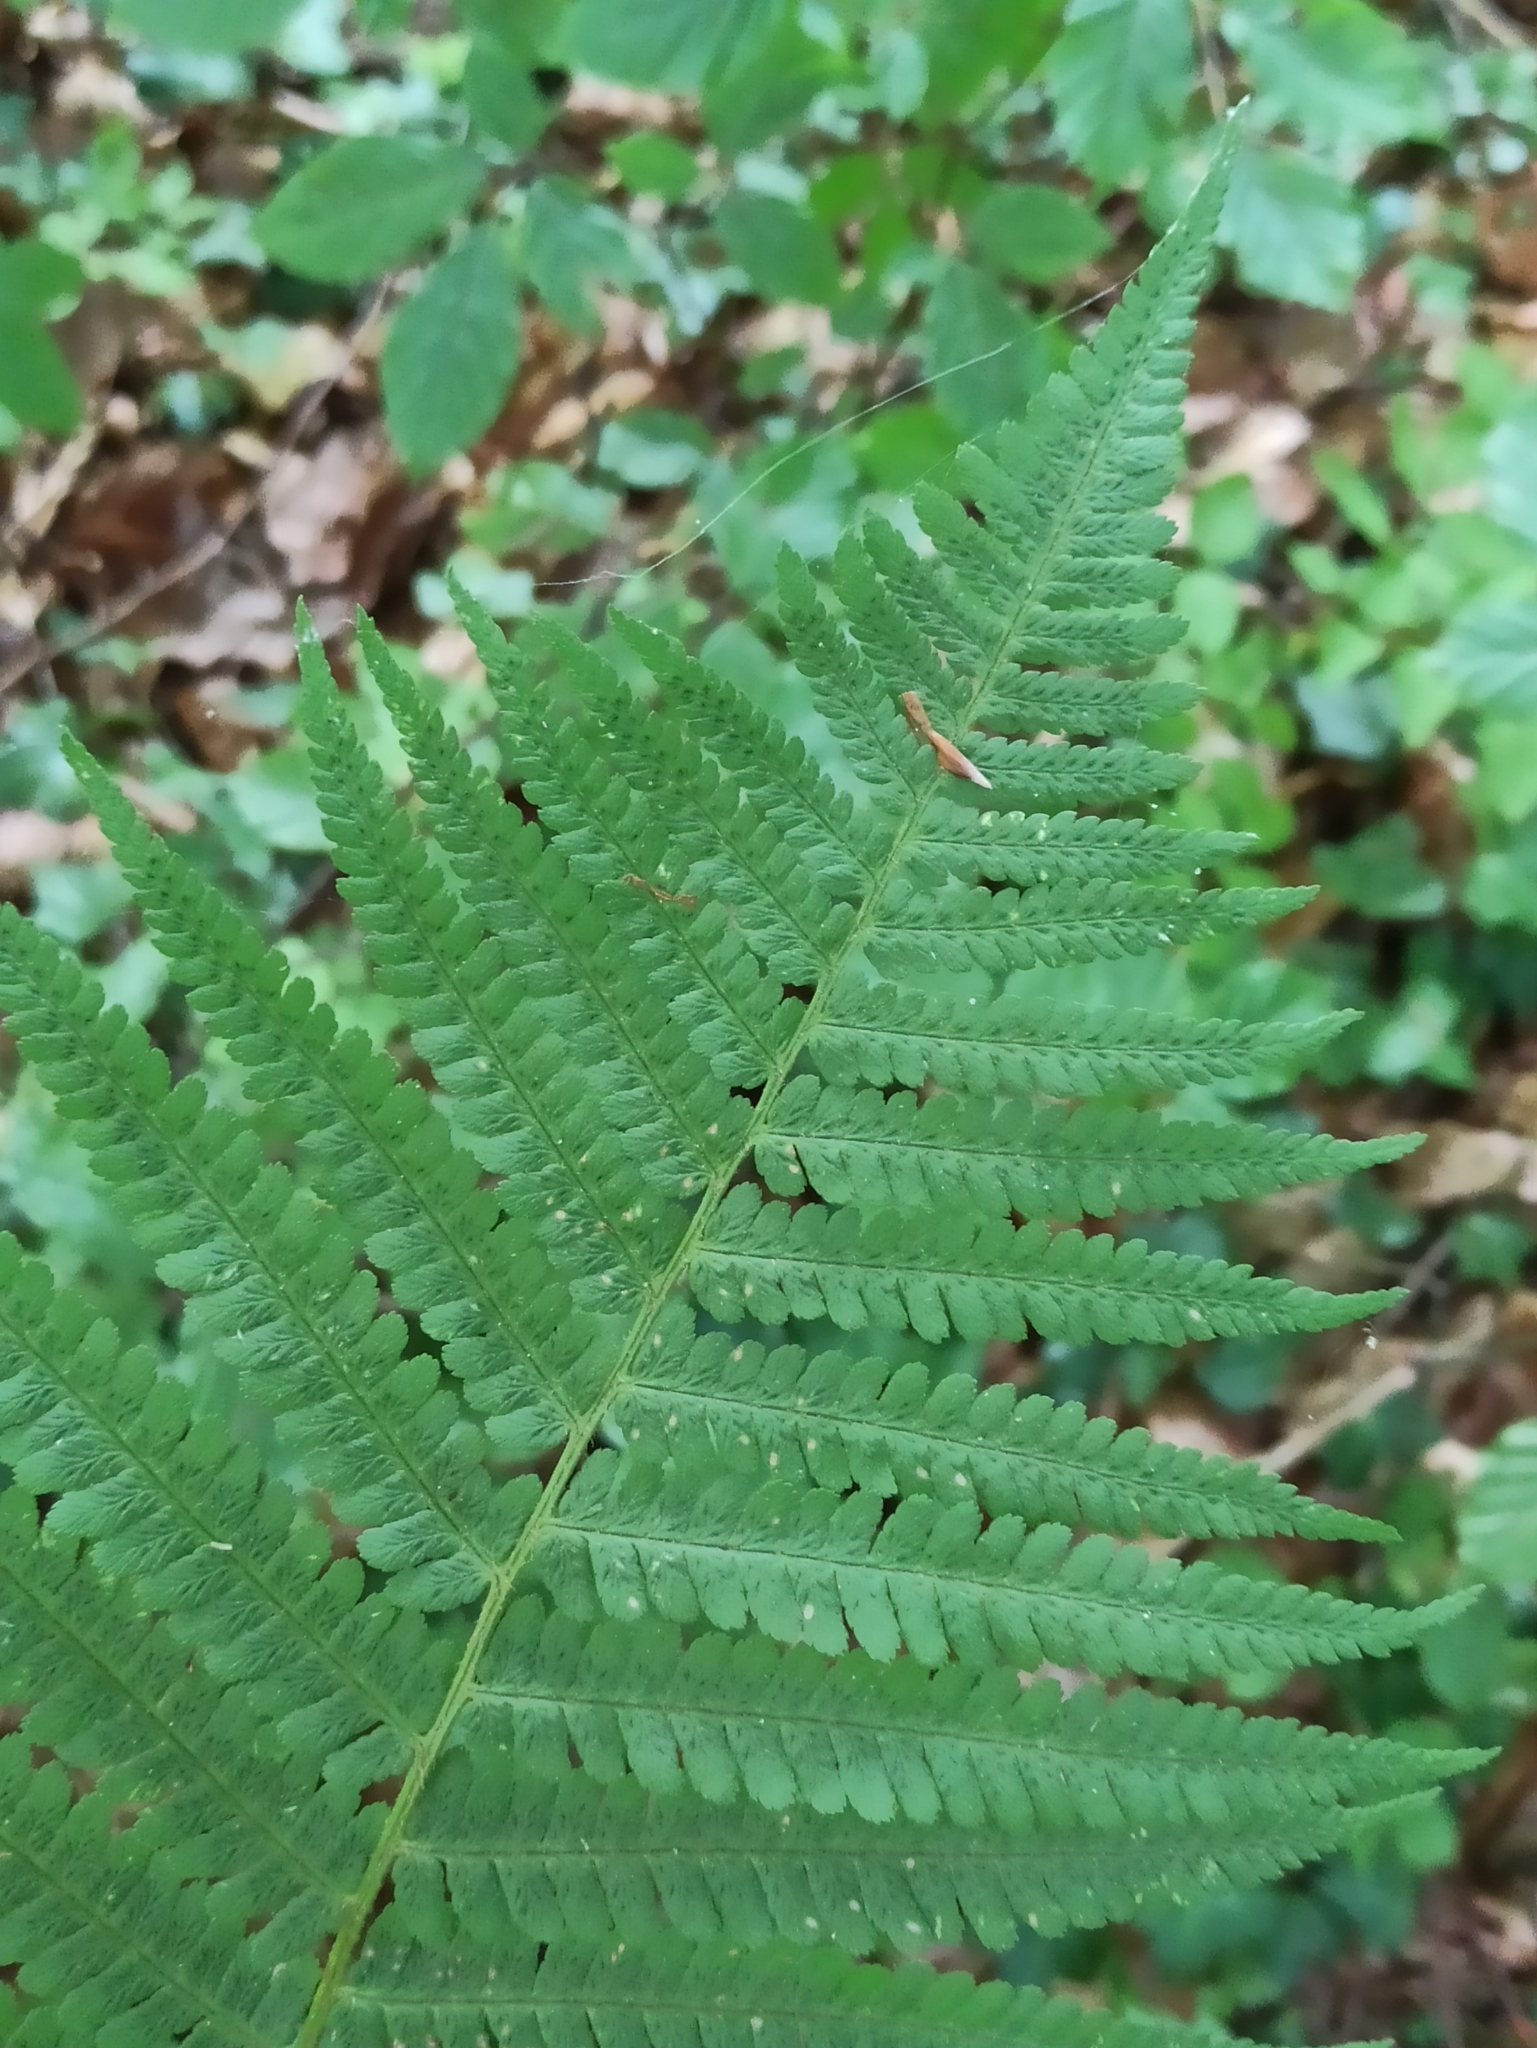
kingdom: Plantae
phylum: Tracheophyta
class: Polypodiopsida
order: Polypodiales
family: Dryopteridaceae
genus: Dryopteris
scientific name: Dryopteris filix-mas
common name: Male fern
